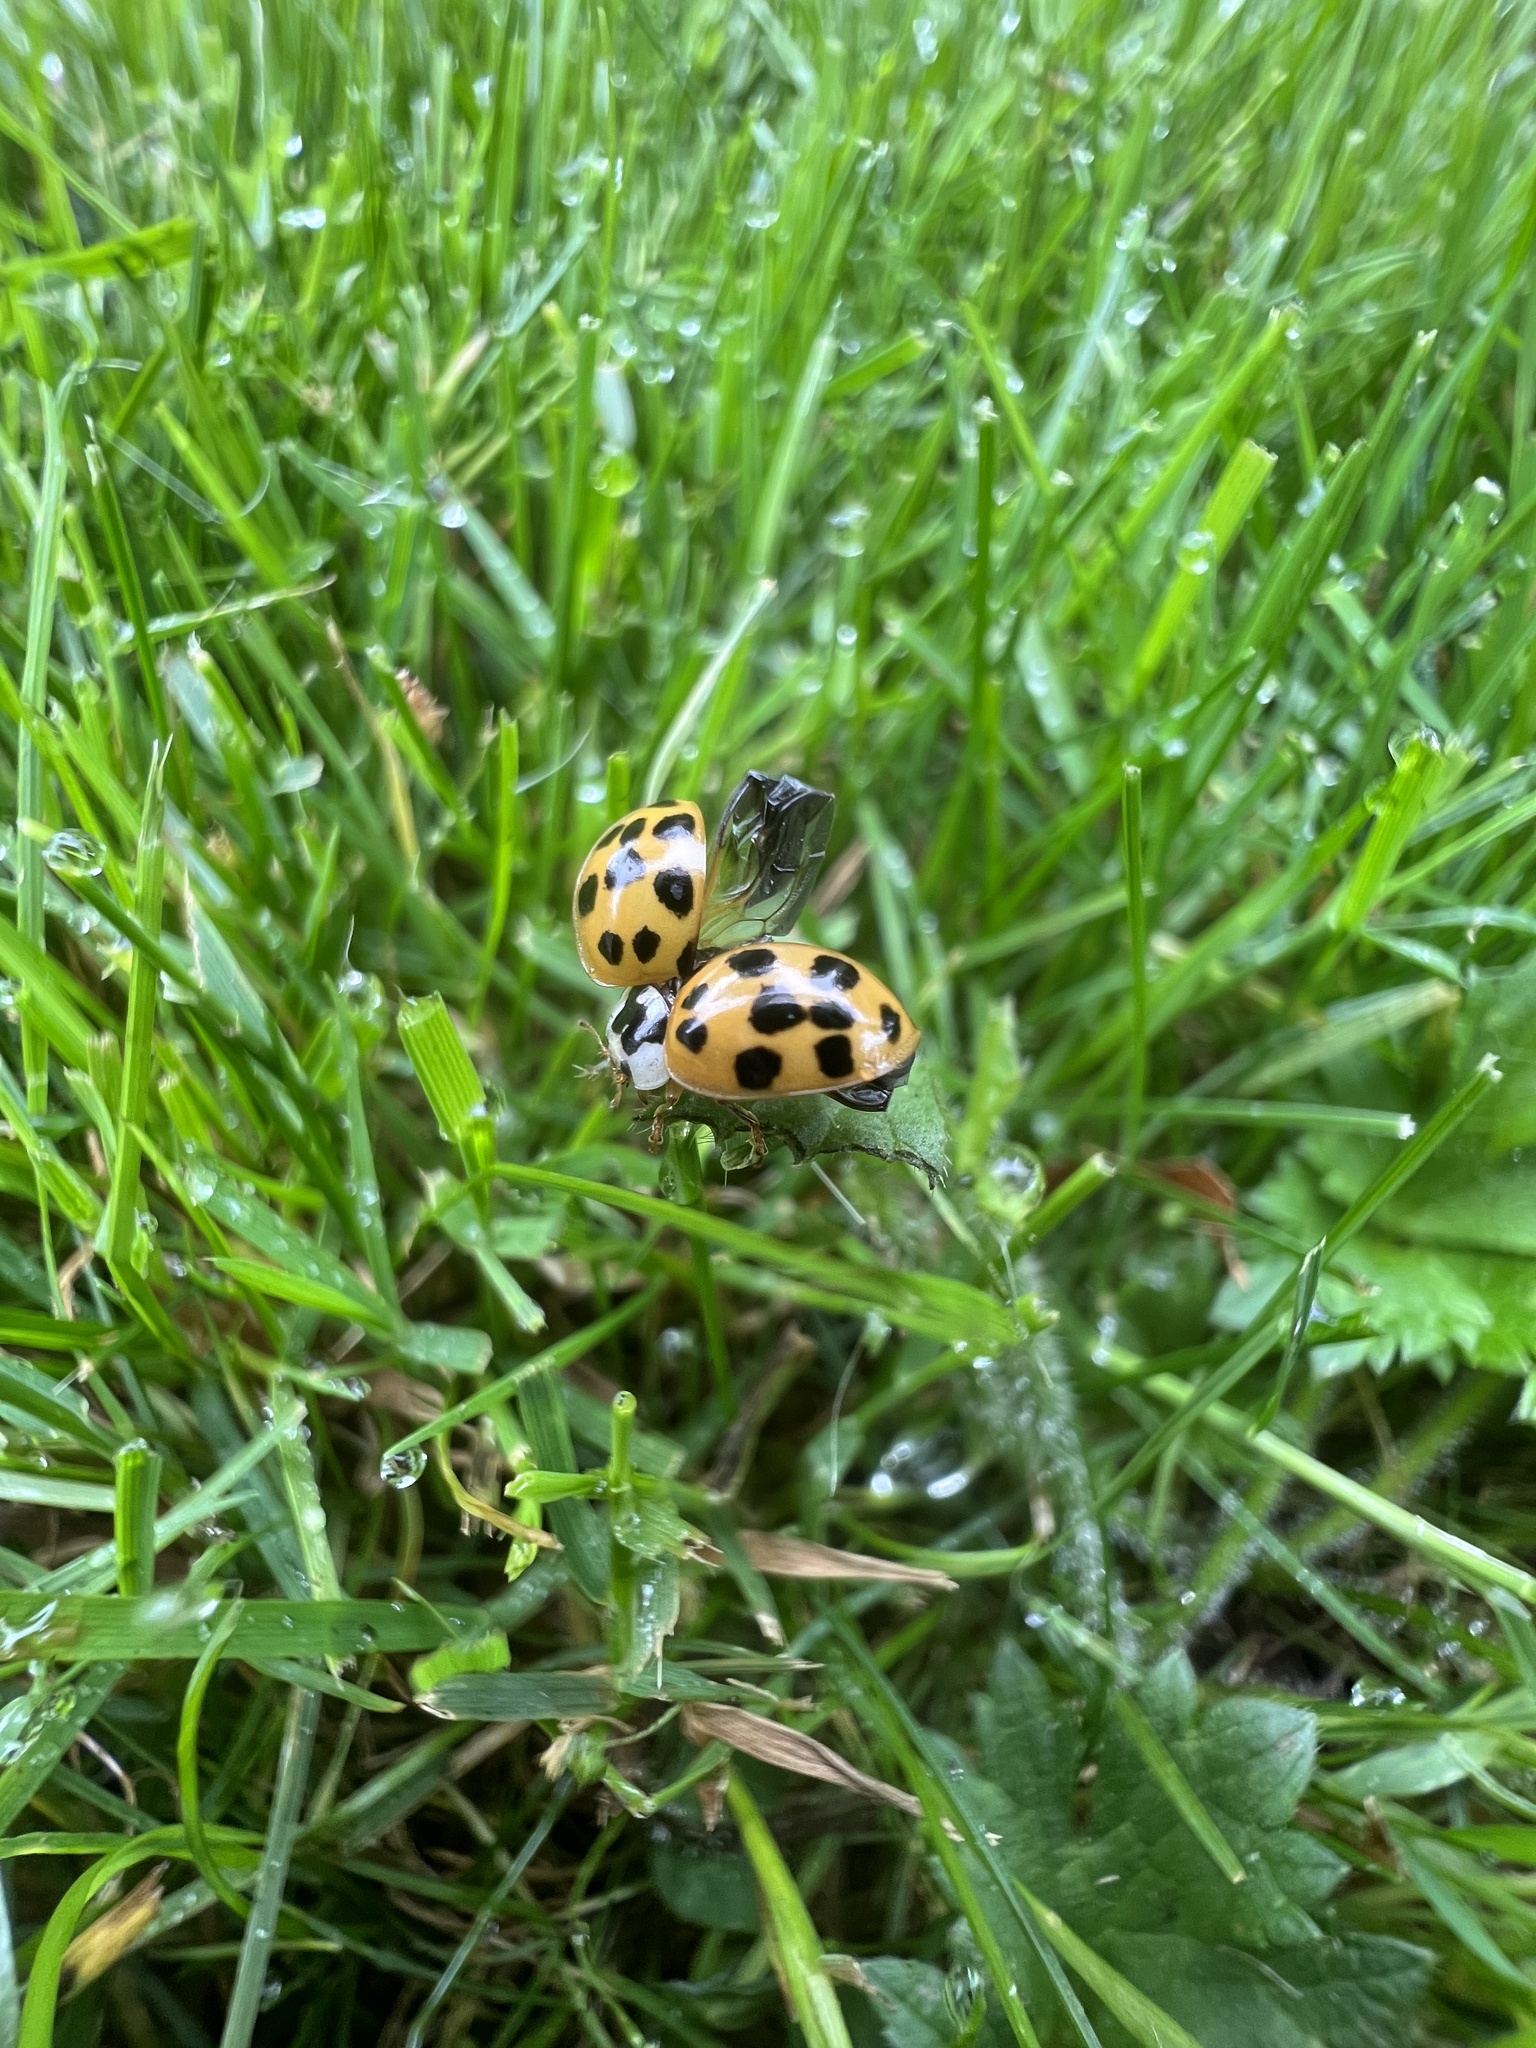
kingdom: Animalia
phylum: Arthropoda
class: Insecta
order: Coleoptera
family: Coccinellidae
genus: Harmonia
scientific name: Harmonia axyridis
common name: Harlequin ladybird
